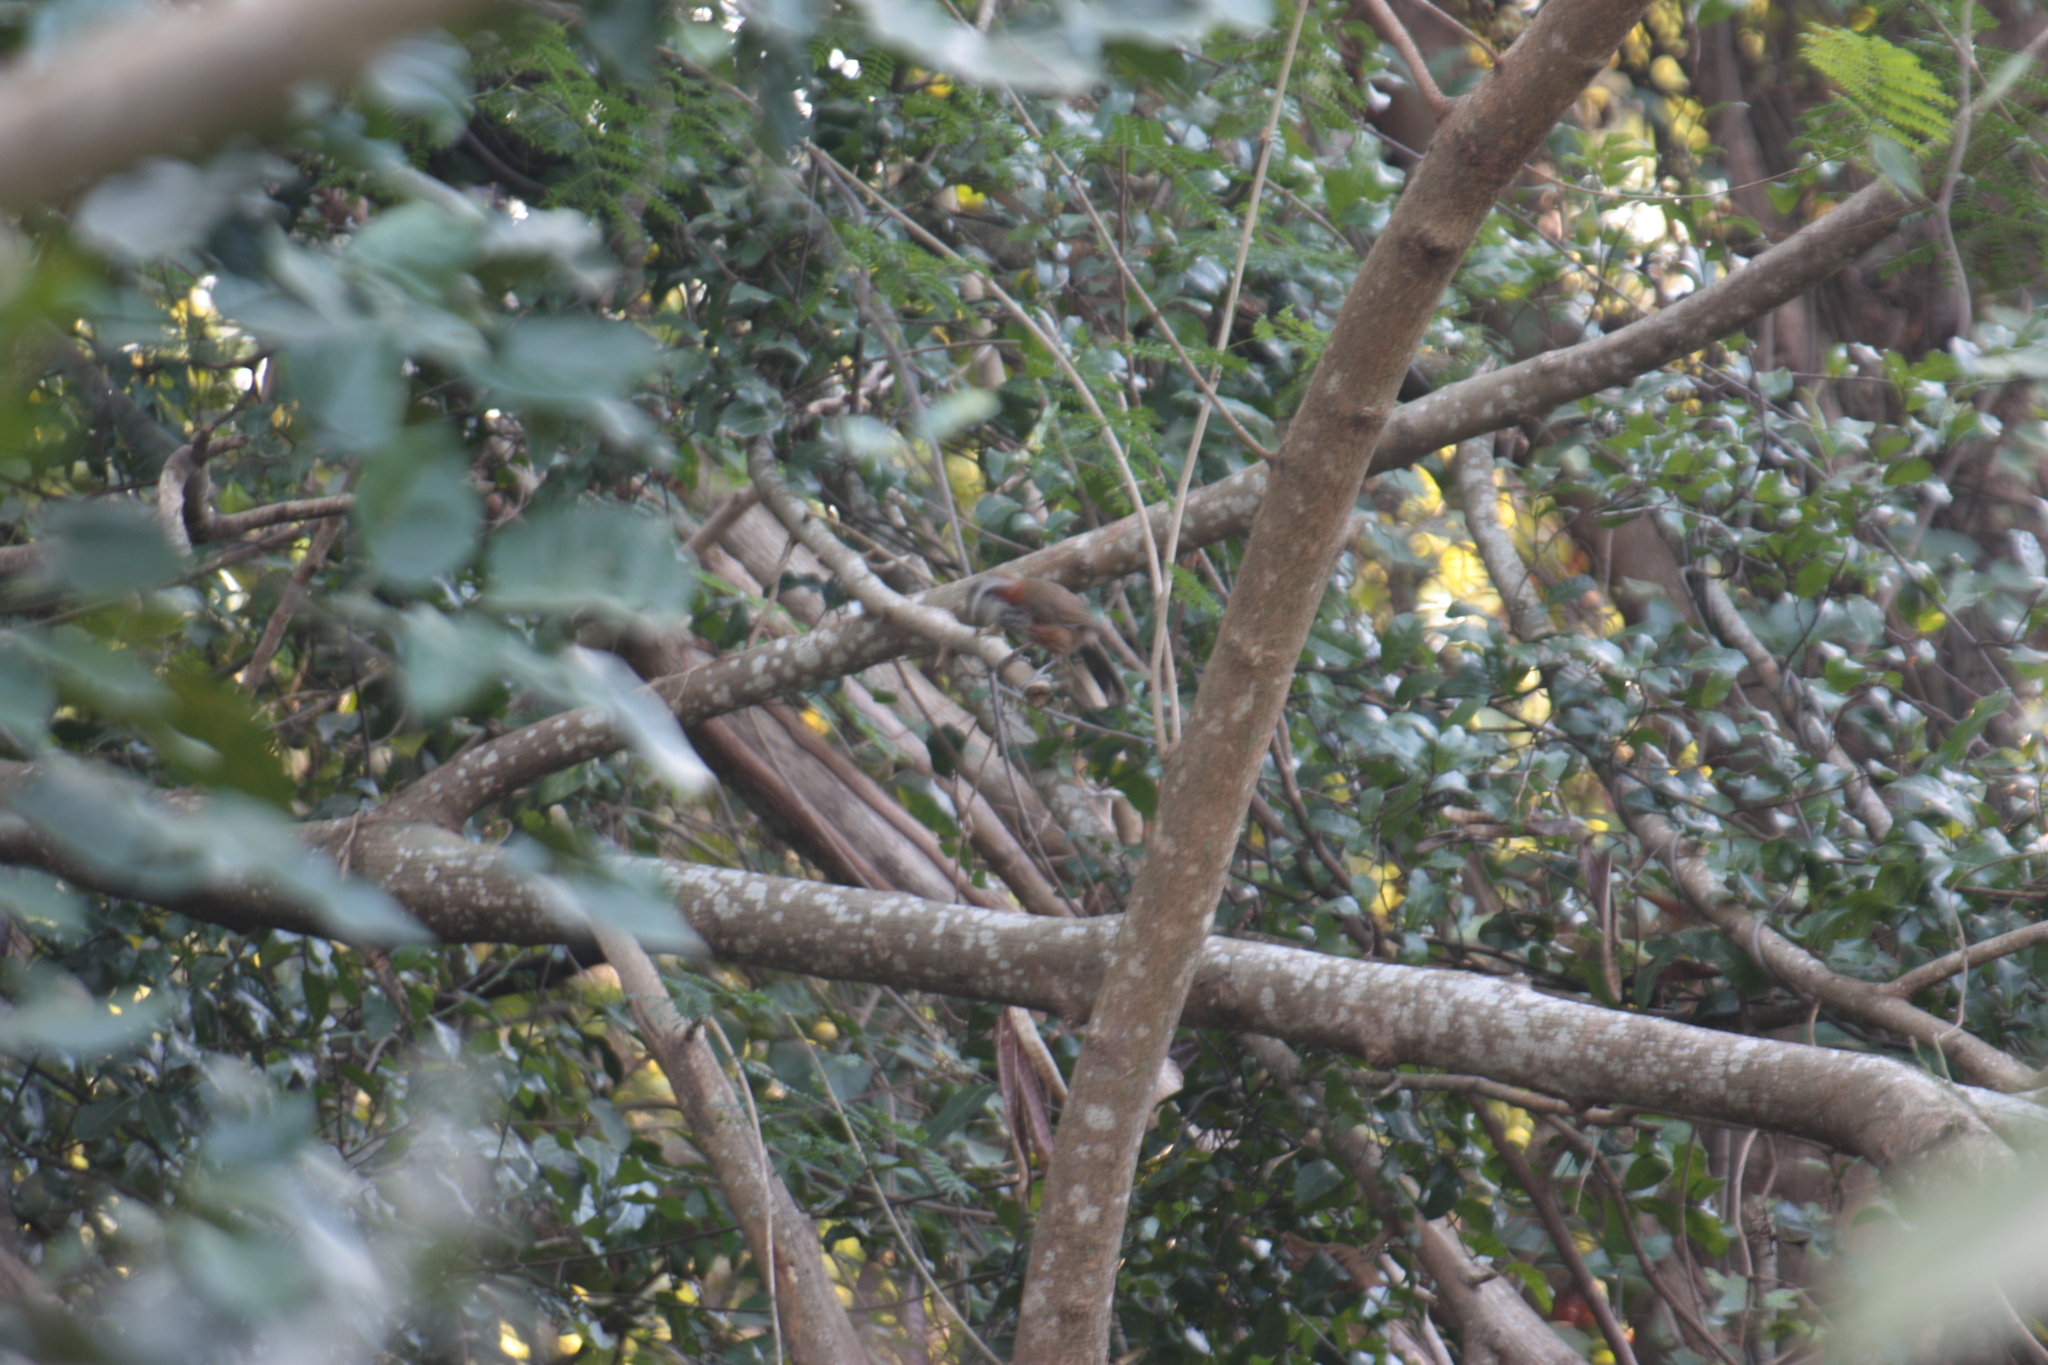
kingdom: Animalia
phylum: Chordata
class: Aves
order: Passeriformes
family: Timaliidae
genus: Pomatorhinus
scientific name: Pomatorhinus musicus
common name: Taiwan scimitar-babbler
